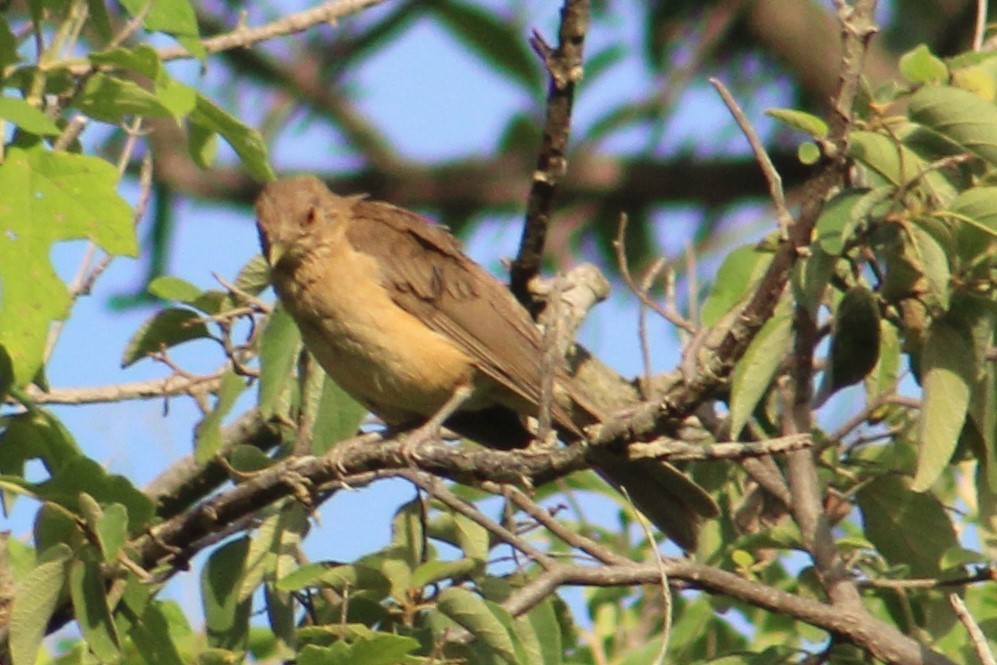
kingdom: Animalia
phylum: Chordata
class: Aves
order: Passeriformes
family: Turdidae
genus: Turdus
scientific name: Turdus grayi
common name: Clay-colored thrush
